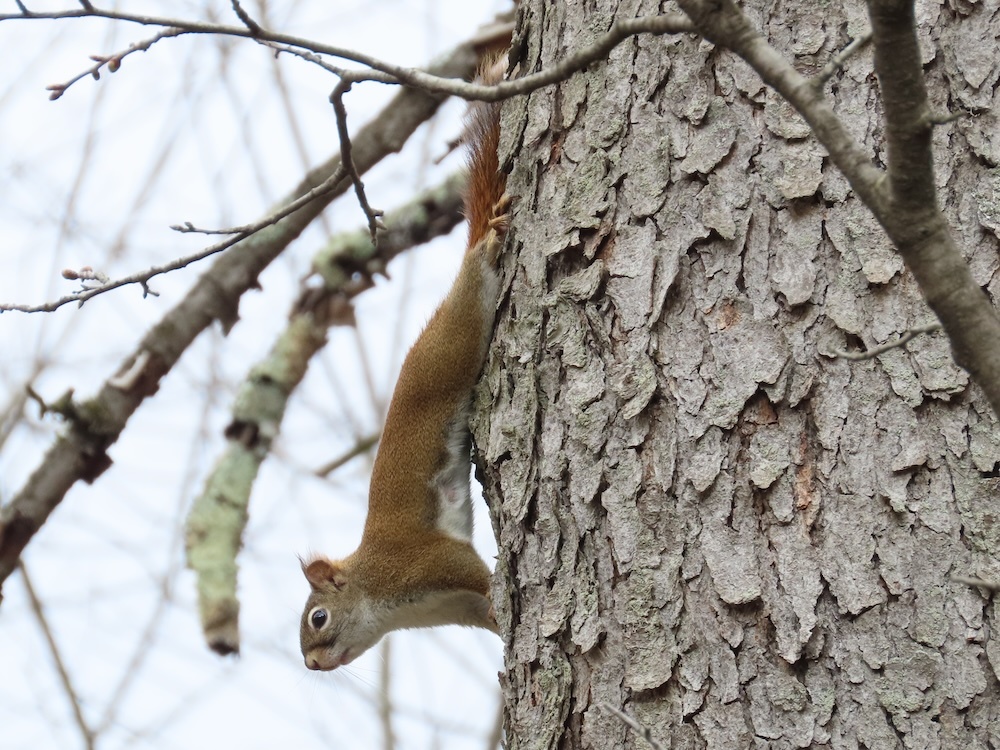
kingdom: Animalia
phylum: Chordata
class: Mammalia
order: Rodentia
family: Sciuridae
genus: Tamiasciurus
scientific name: Tamiasciurus hudsonicus
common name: Red squirrel
